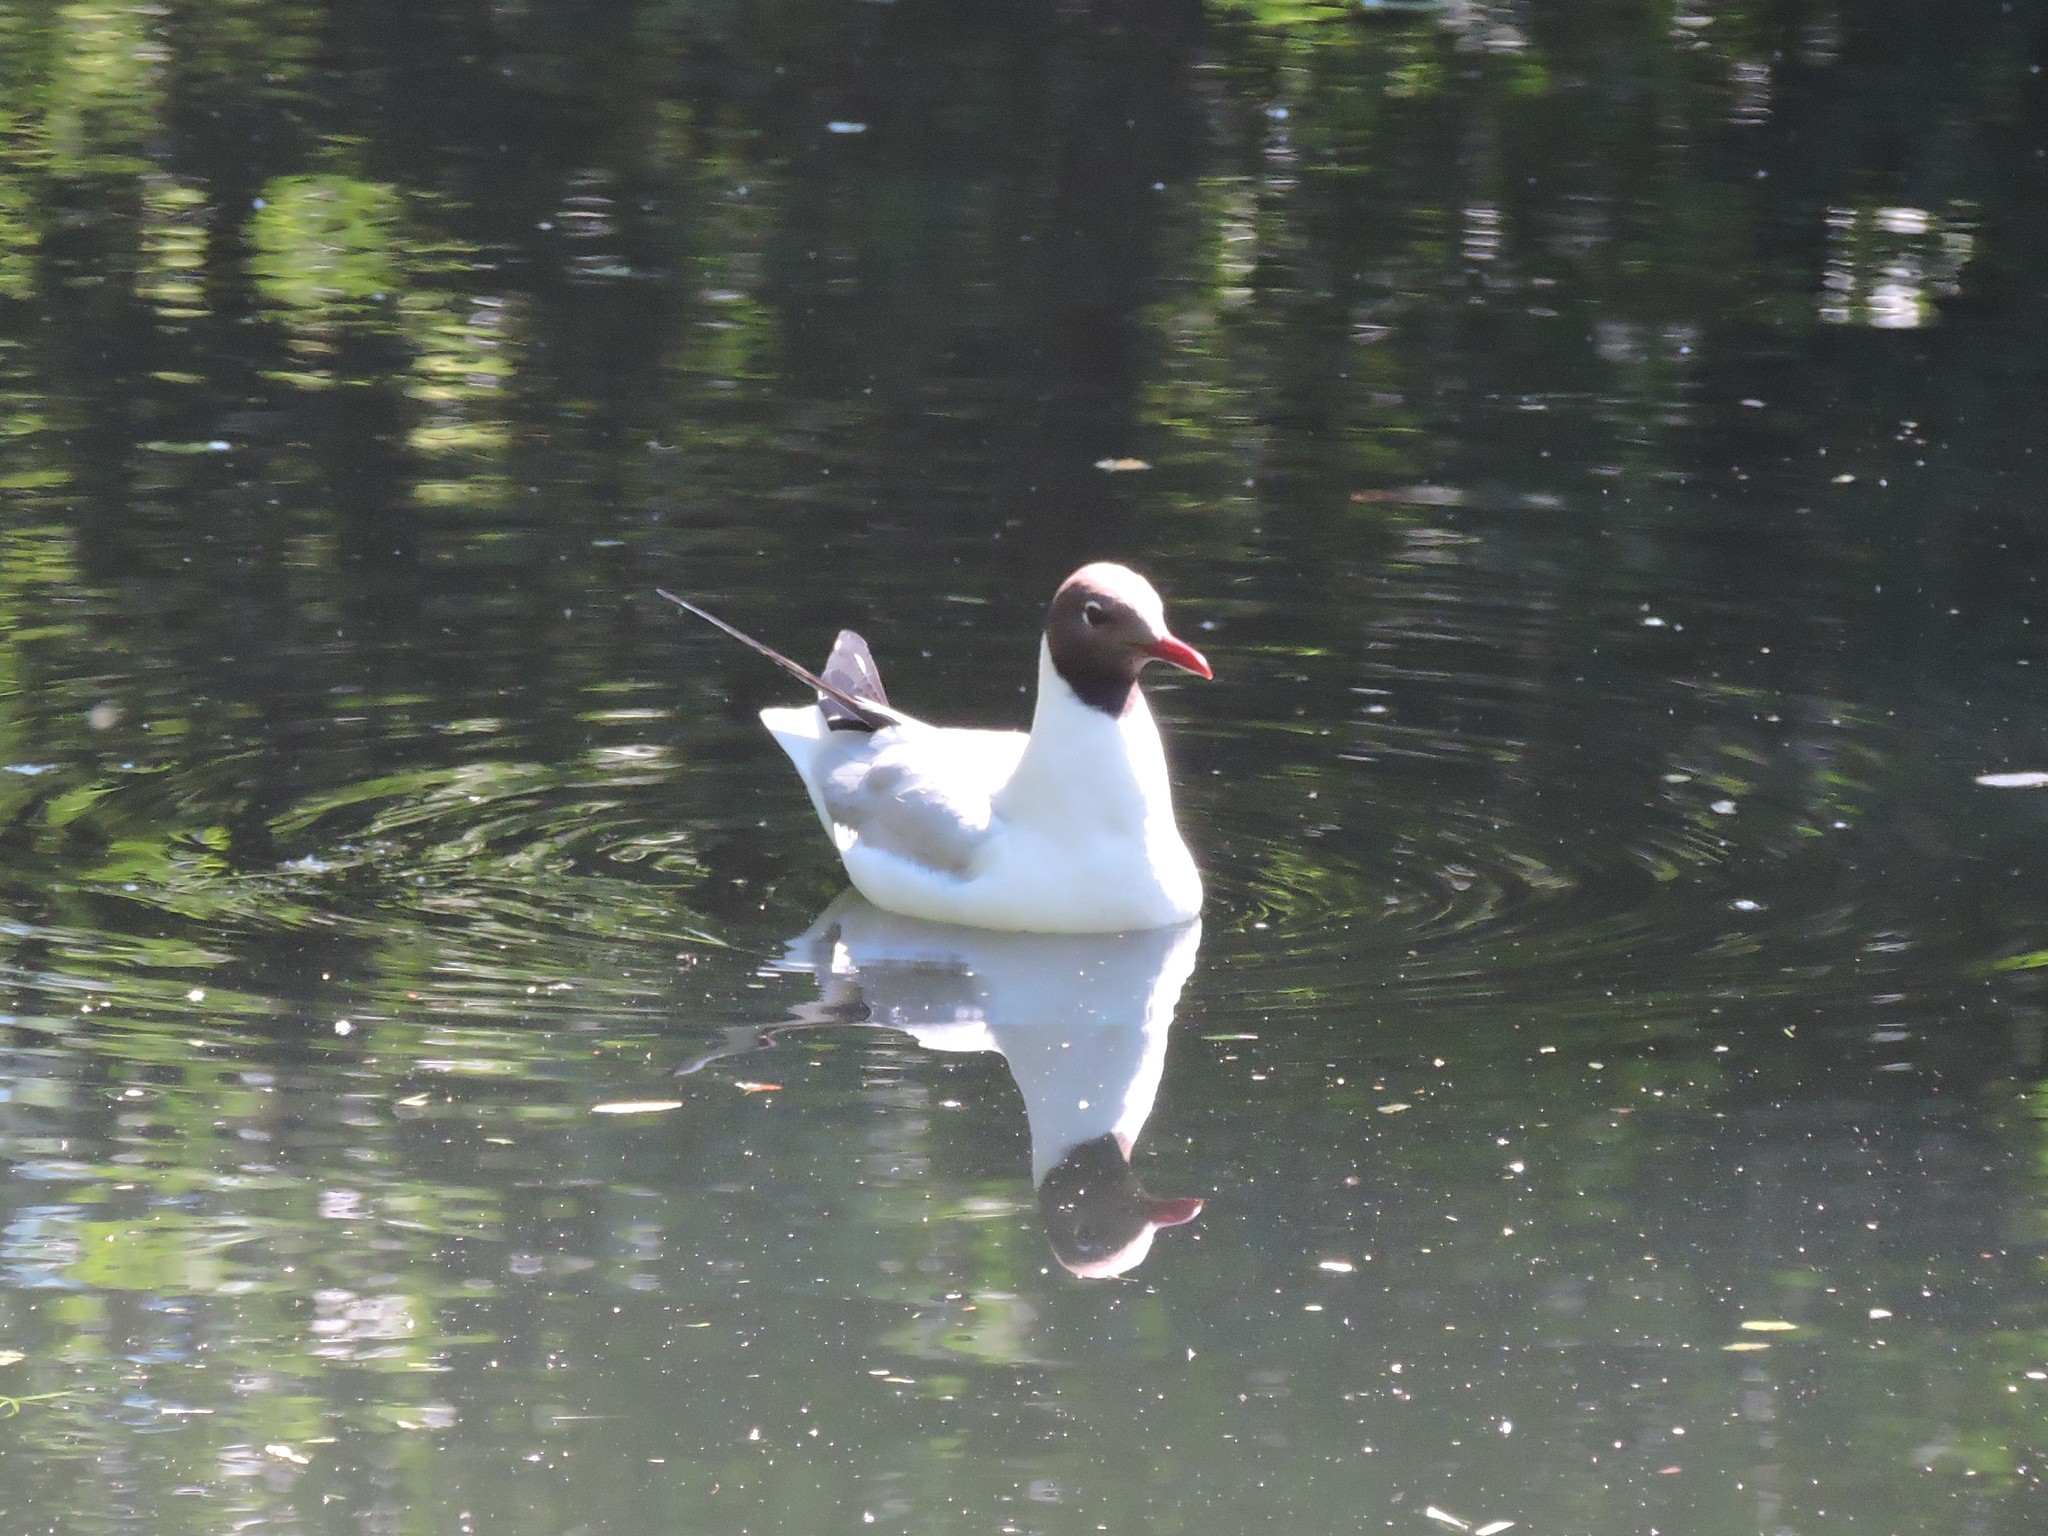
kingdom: Animalia
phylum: Chordata
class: Aves
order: Charadriiformes
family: Laridae
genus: Chroicocephalus
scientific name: Chroicocephalus ridibundus
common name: Black-headed gull
